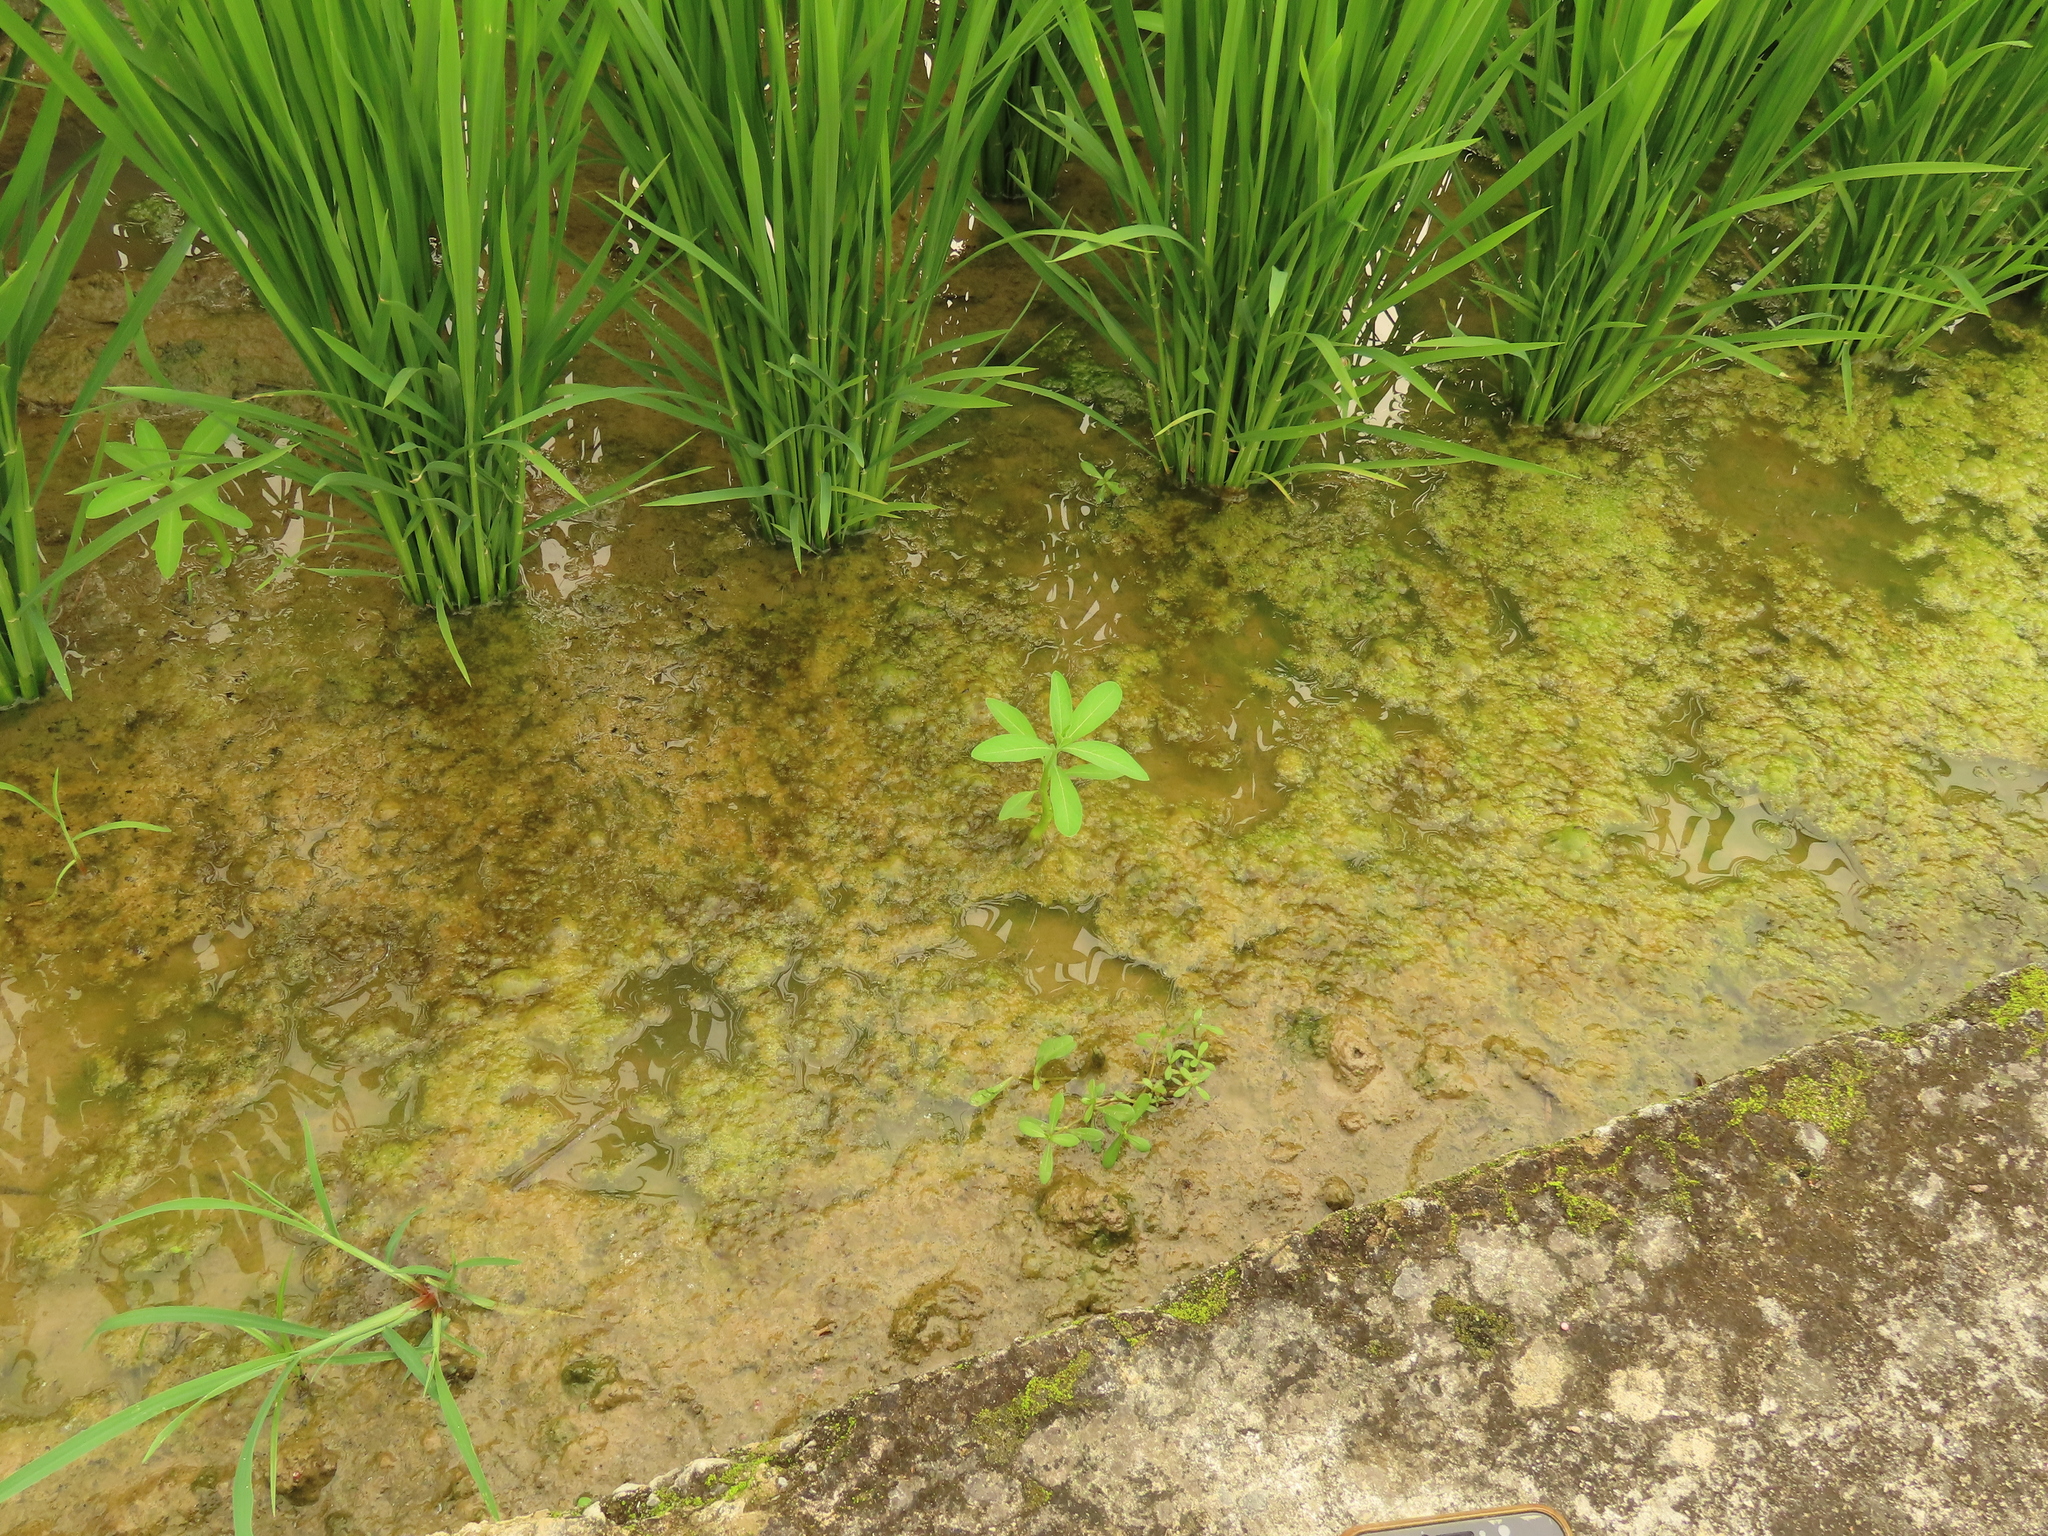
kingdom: Plantae
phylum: Tracheophyta
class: Magnoliopsida
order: Solanales
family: Sphenocleaceae
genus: Sphenoclea
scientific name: Sphenoclea zeylanica
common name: Chickenspike
